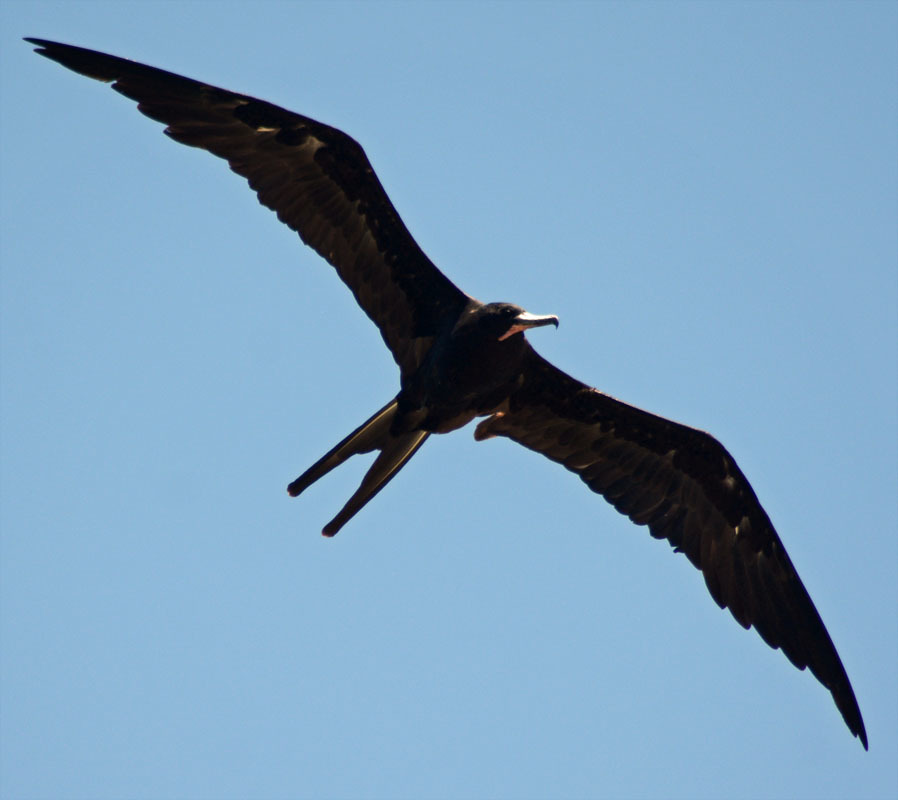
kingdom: Animalia
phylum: Chordata
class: Aves
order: Suliformes
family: Fregatidae
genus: Fregata
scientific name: Fregata magnificens
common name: Magnificent frigatebird
